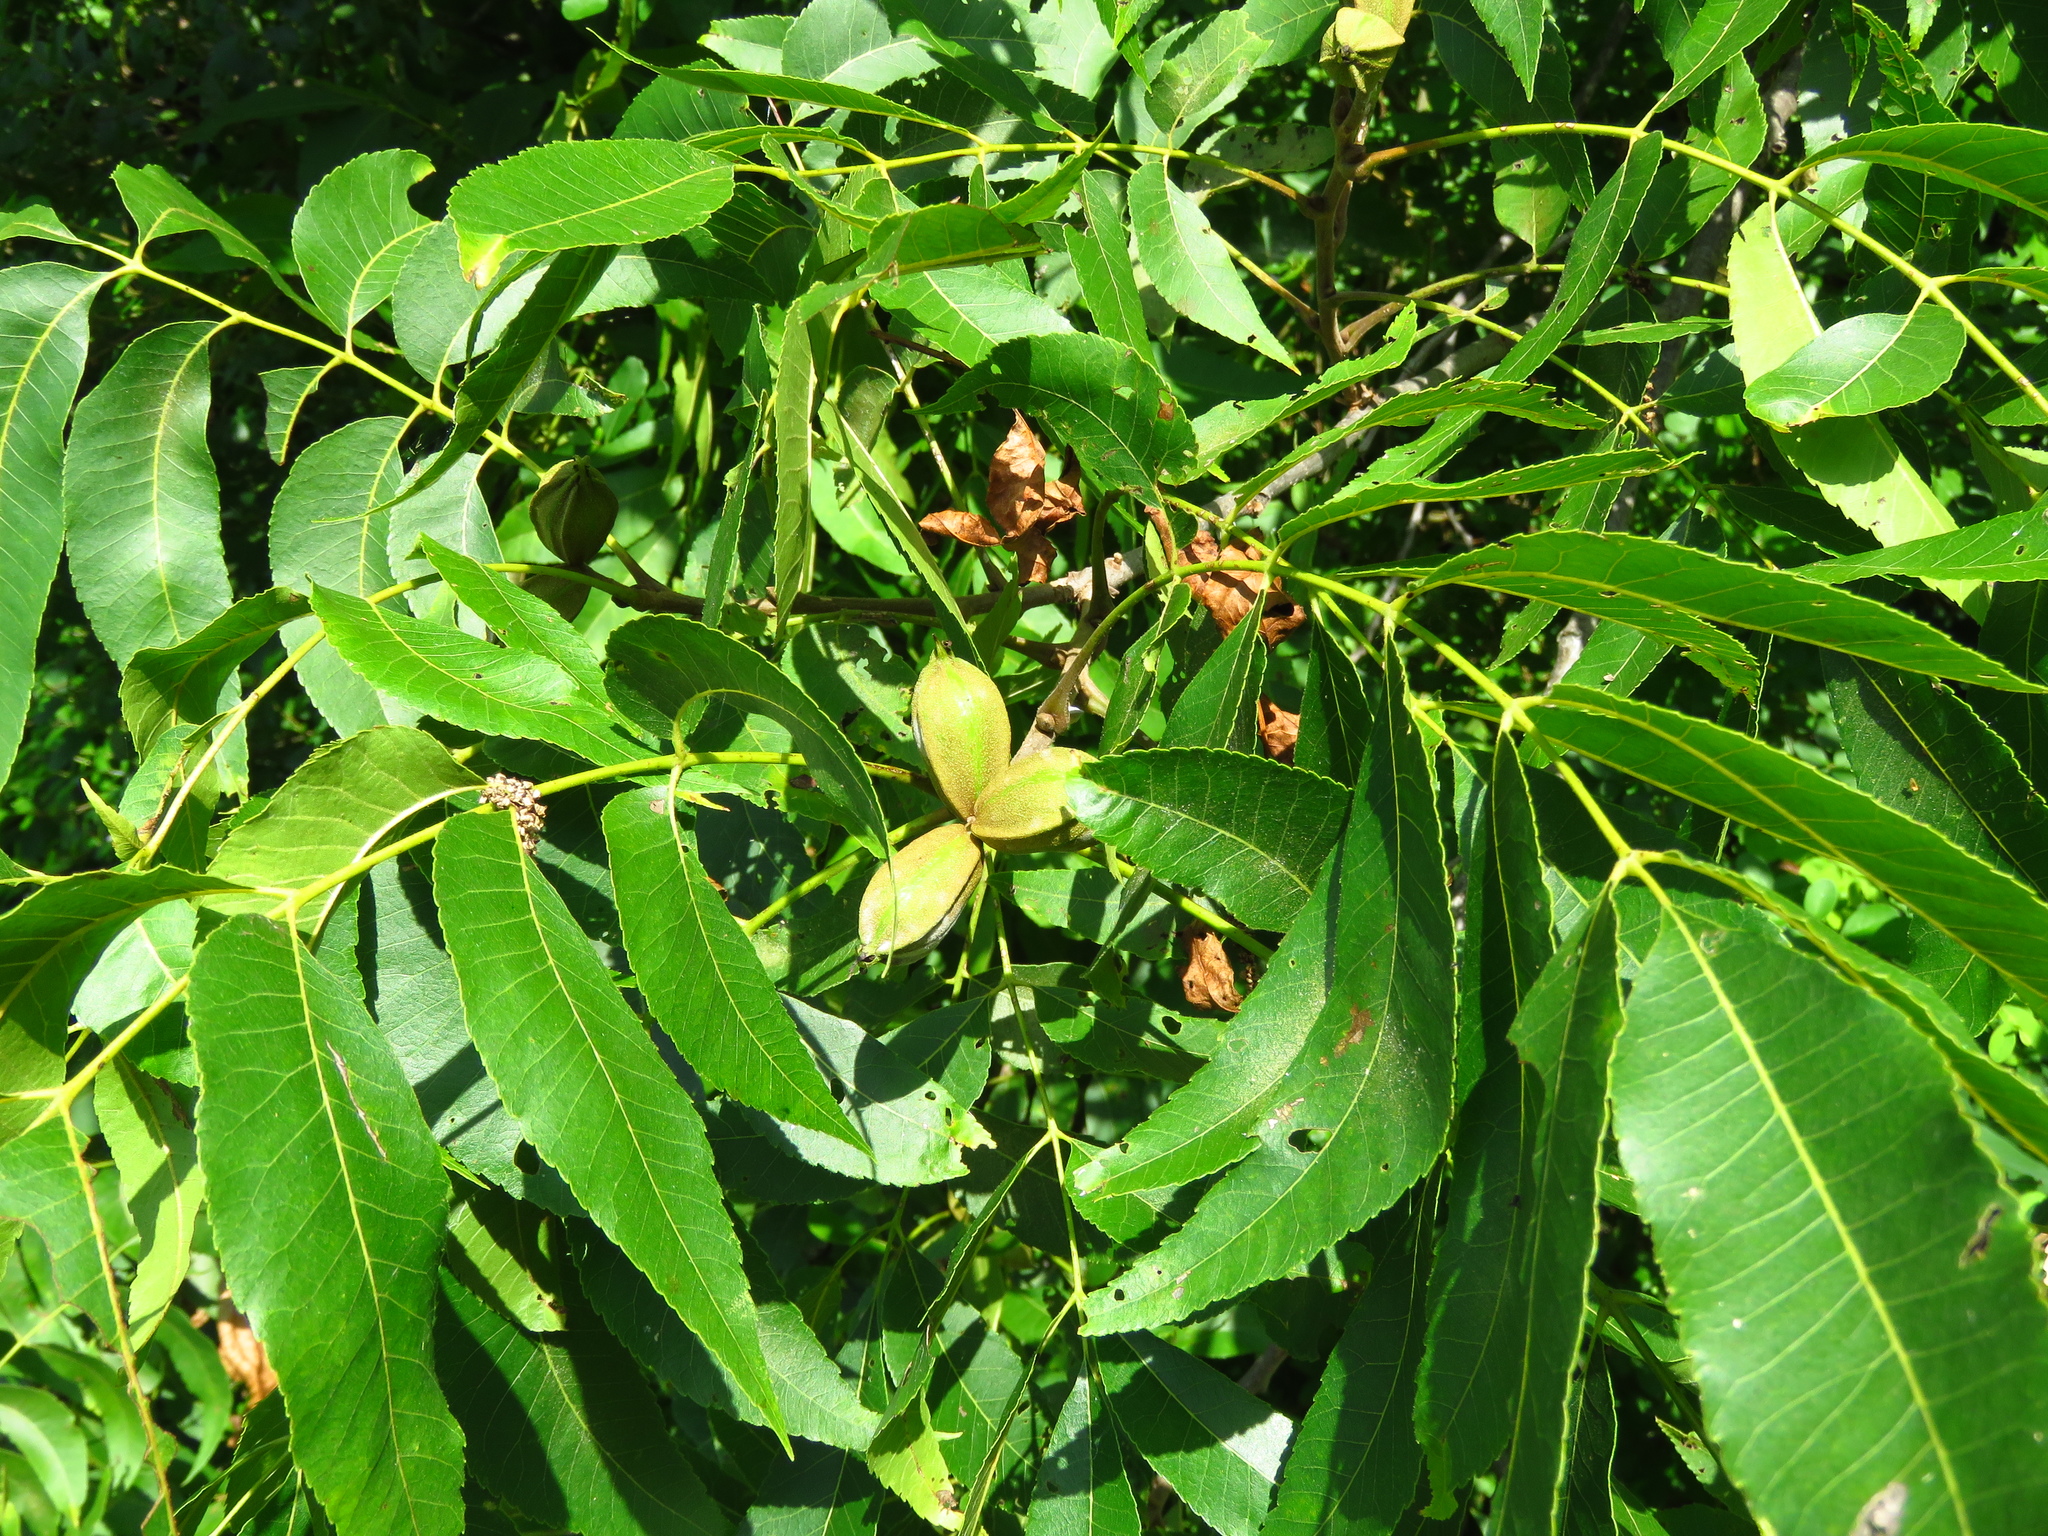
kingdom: Plantae
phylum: Tracheophyta
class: Magnoliopsida
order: Fagales
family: Juglandaceae
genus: Carya
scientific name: Carya illinoinensis
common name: Pecan
